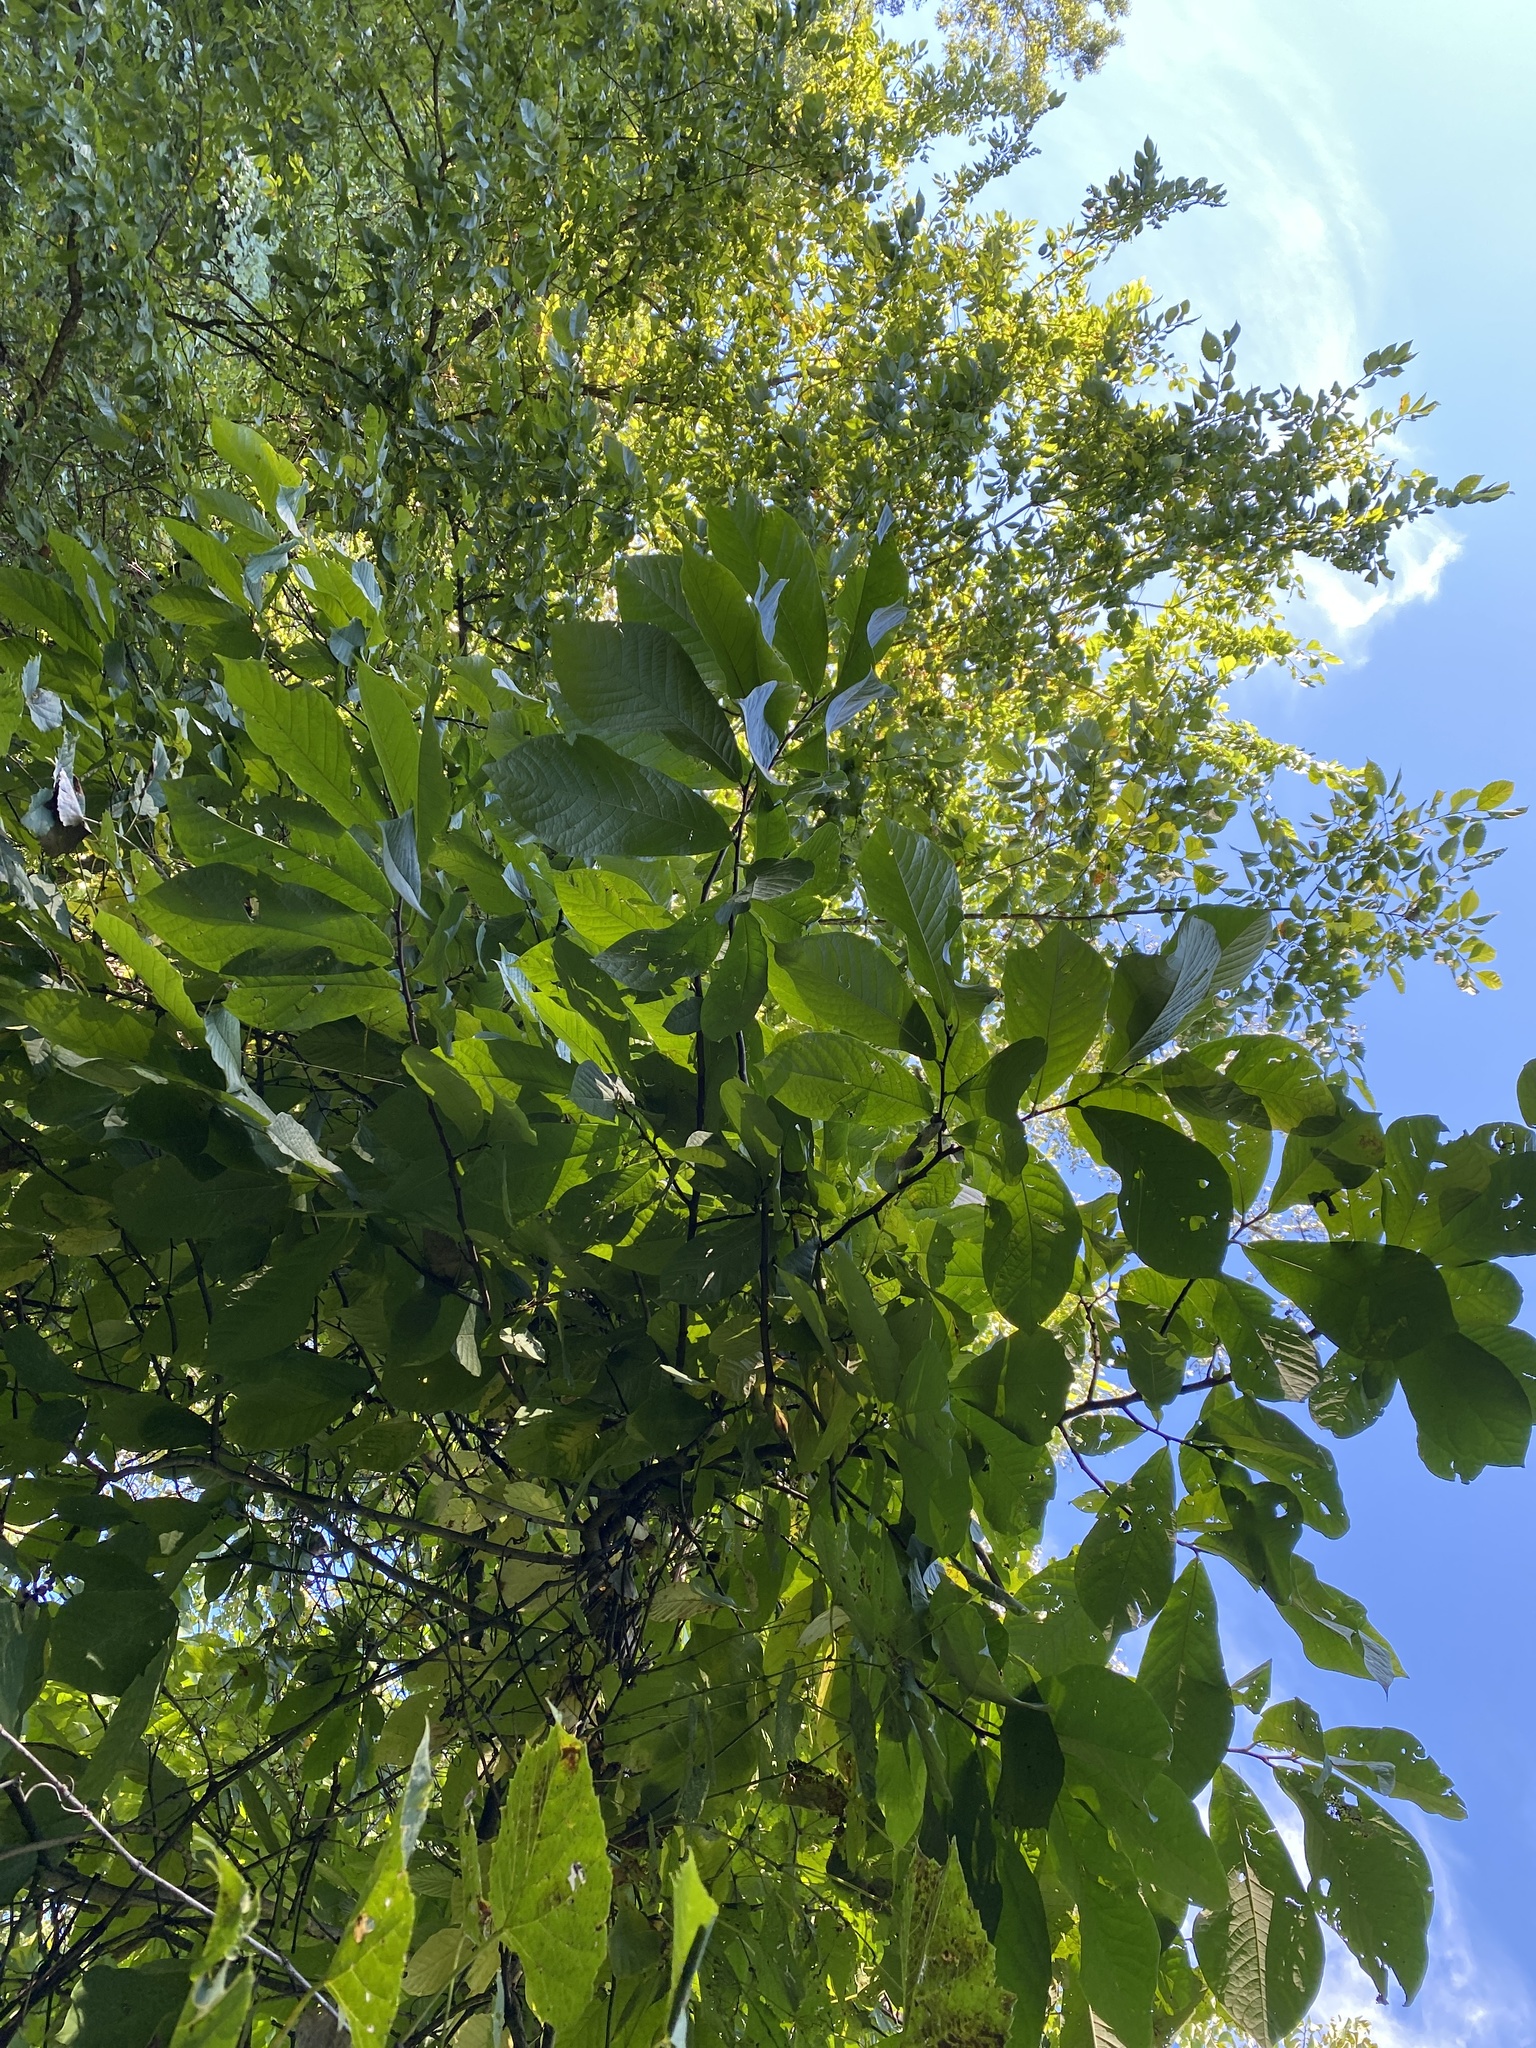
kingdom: Plantae
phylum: Tracheophyta
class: Magnoliopsida
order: Magnoliales
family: Annonaceae
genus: Asimina
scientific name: Asimina triloba
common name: Dog-banana
